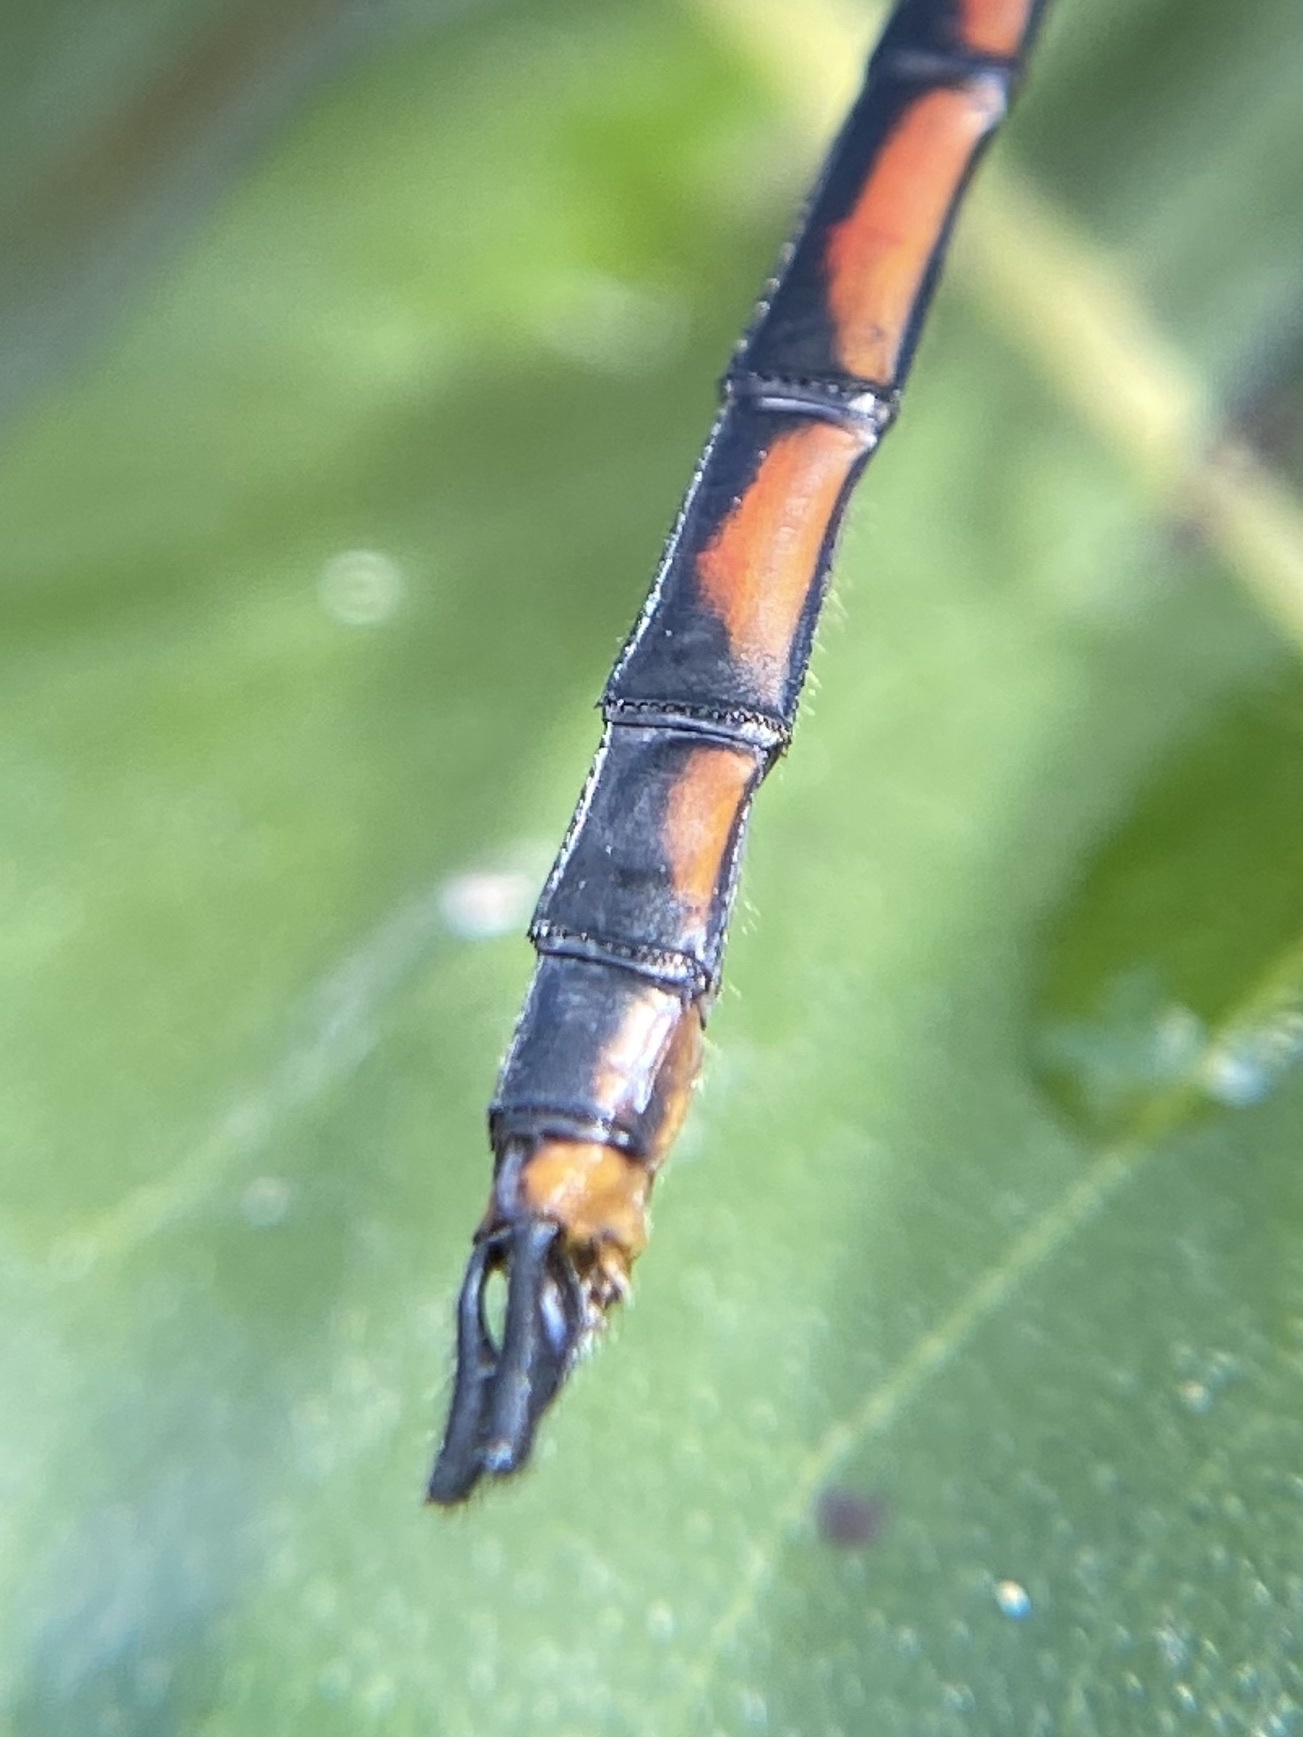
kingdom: Animalia
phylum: Arthropoda
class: Insecta
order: Odonata
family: Libellulidae
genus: Brachymesia
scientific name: Brachymesia gravida
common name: Four-spotted pennant
